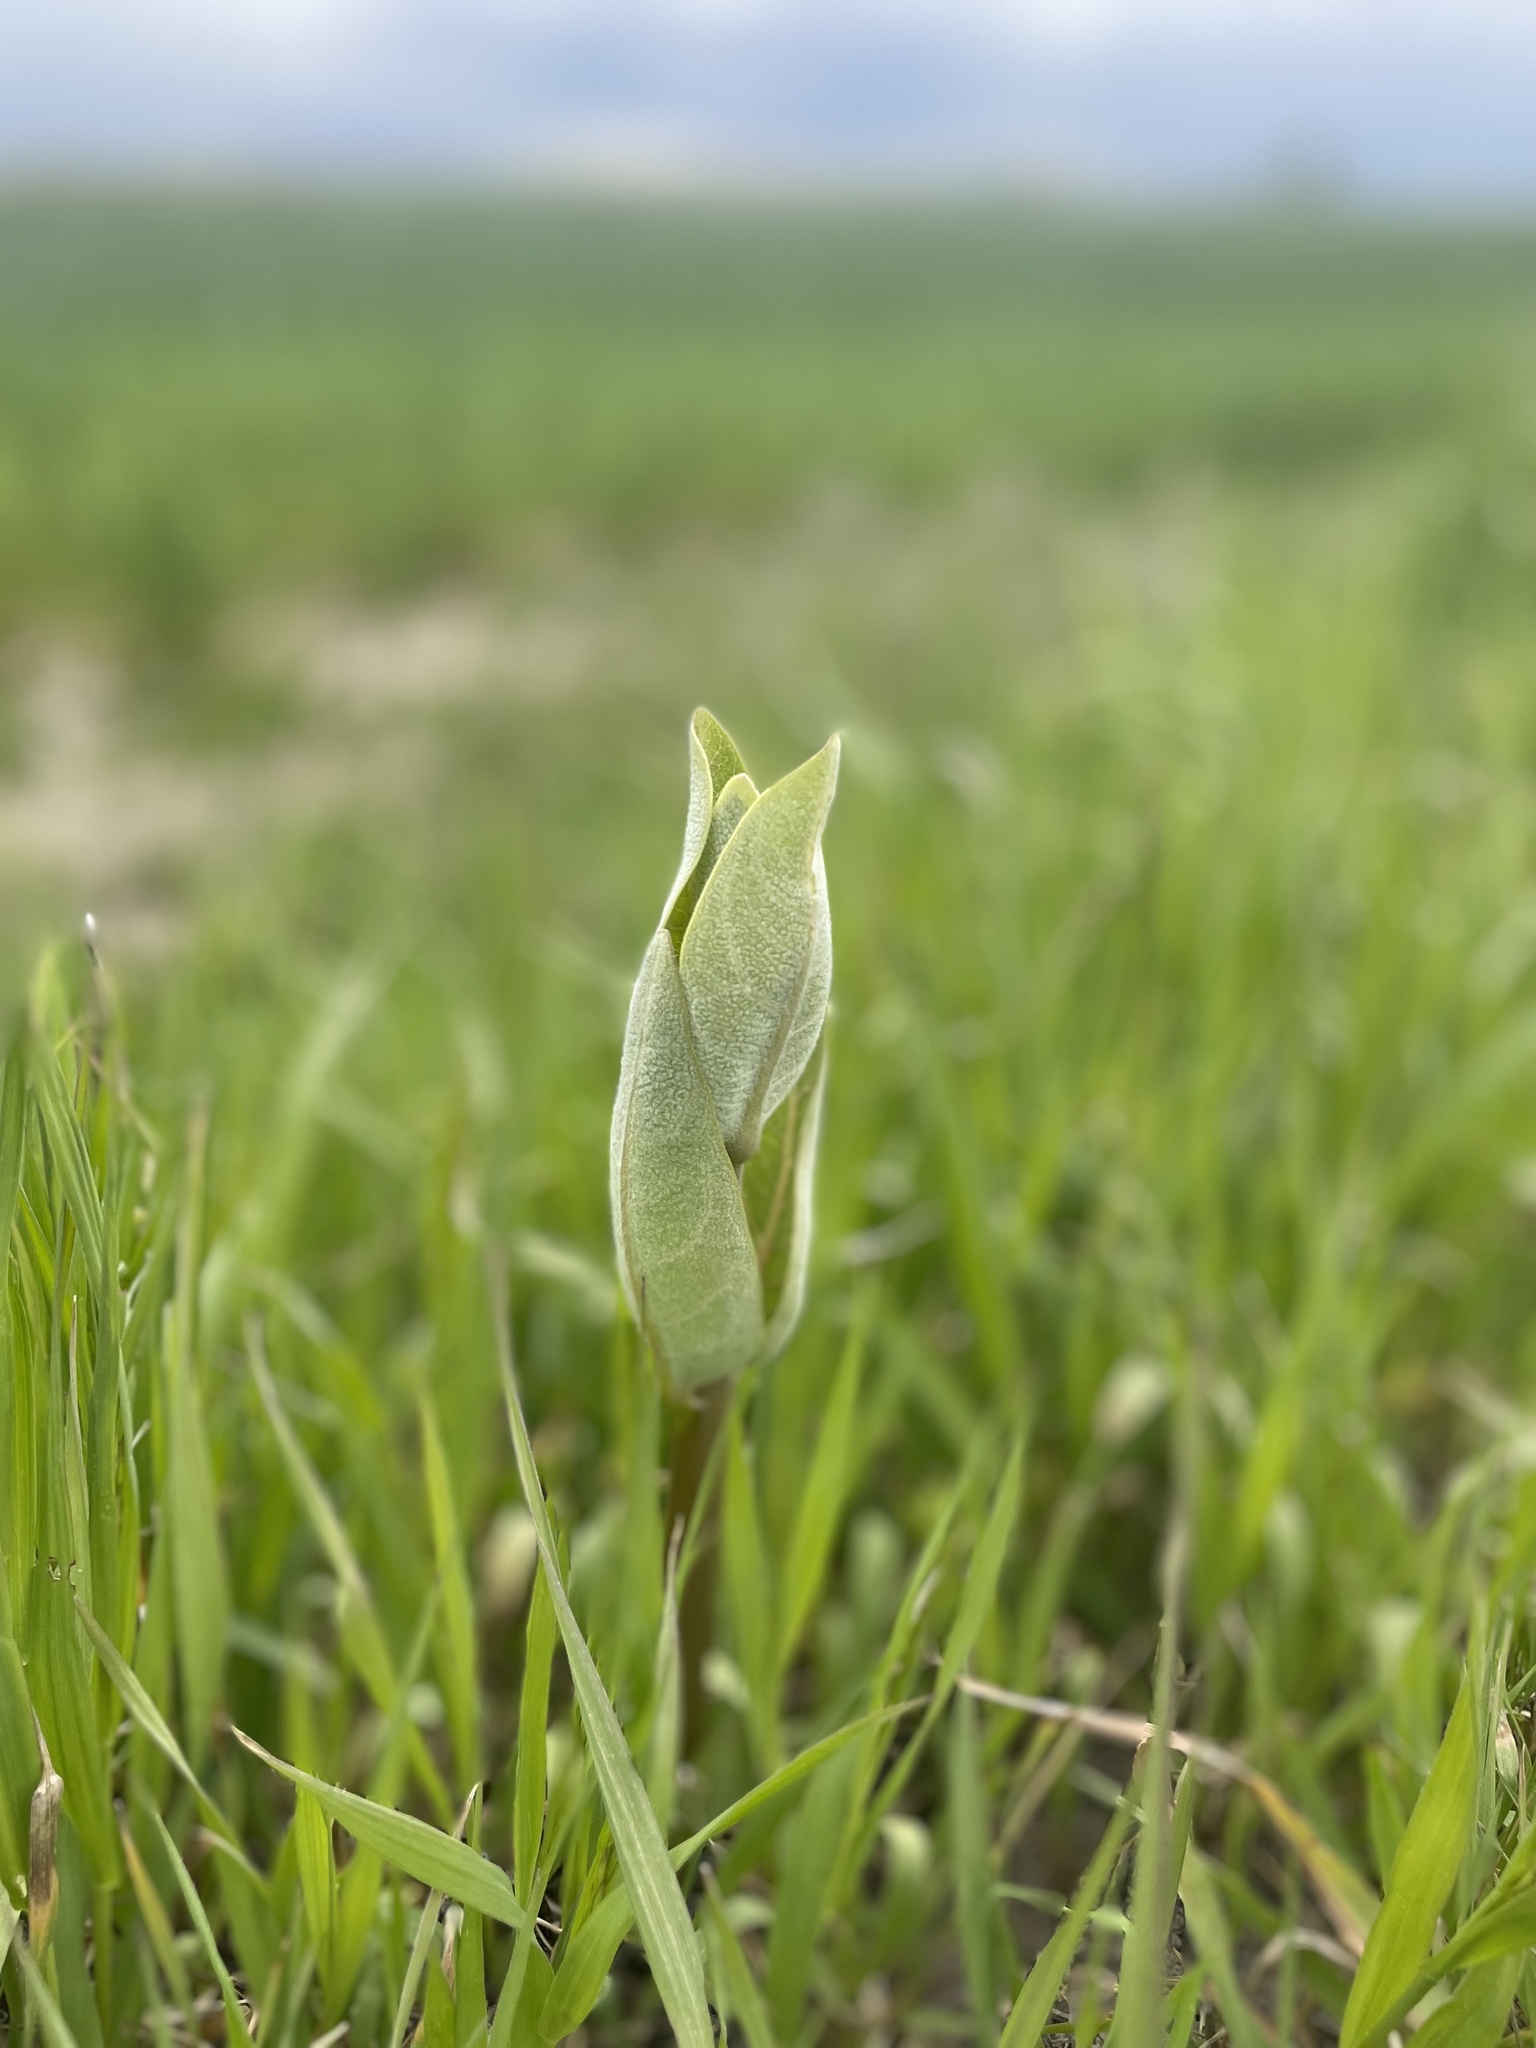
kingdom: Plantae
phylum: Tracheophyta
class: Magnoliopsida
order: Gentianales
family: Apocynaceae
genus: Asclepias
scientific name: Asclepias speciosa
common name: Showy milkweed
